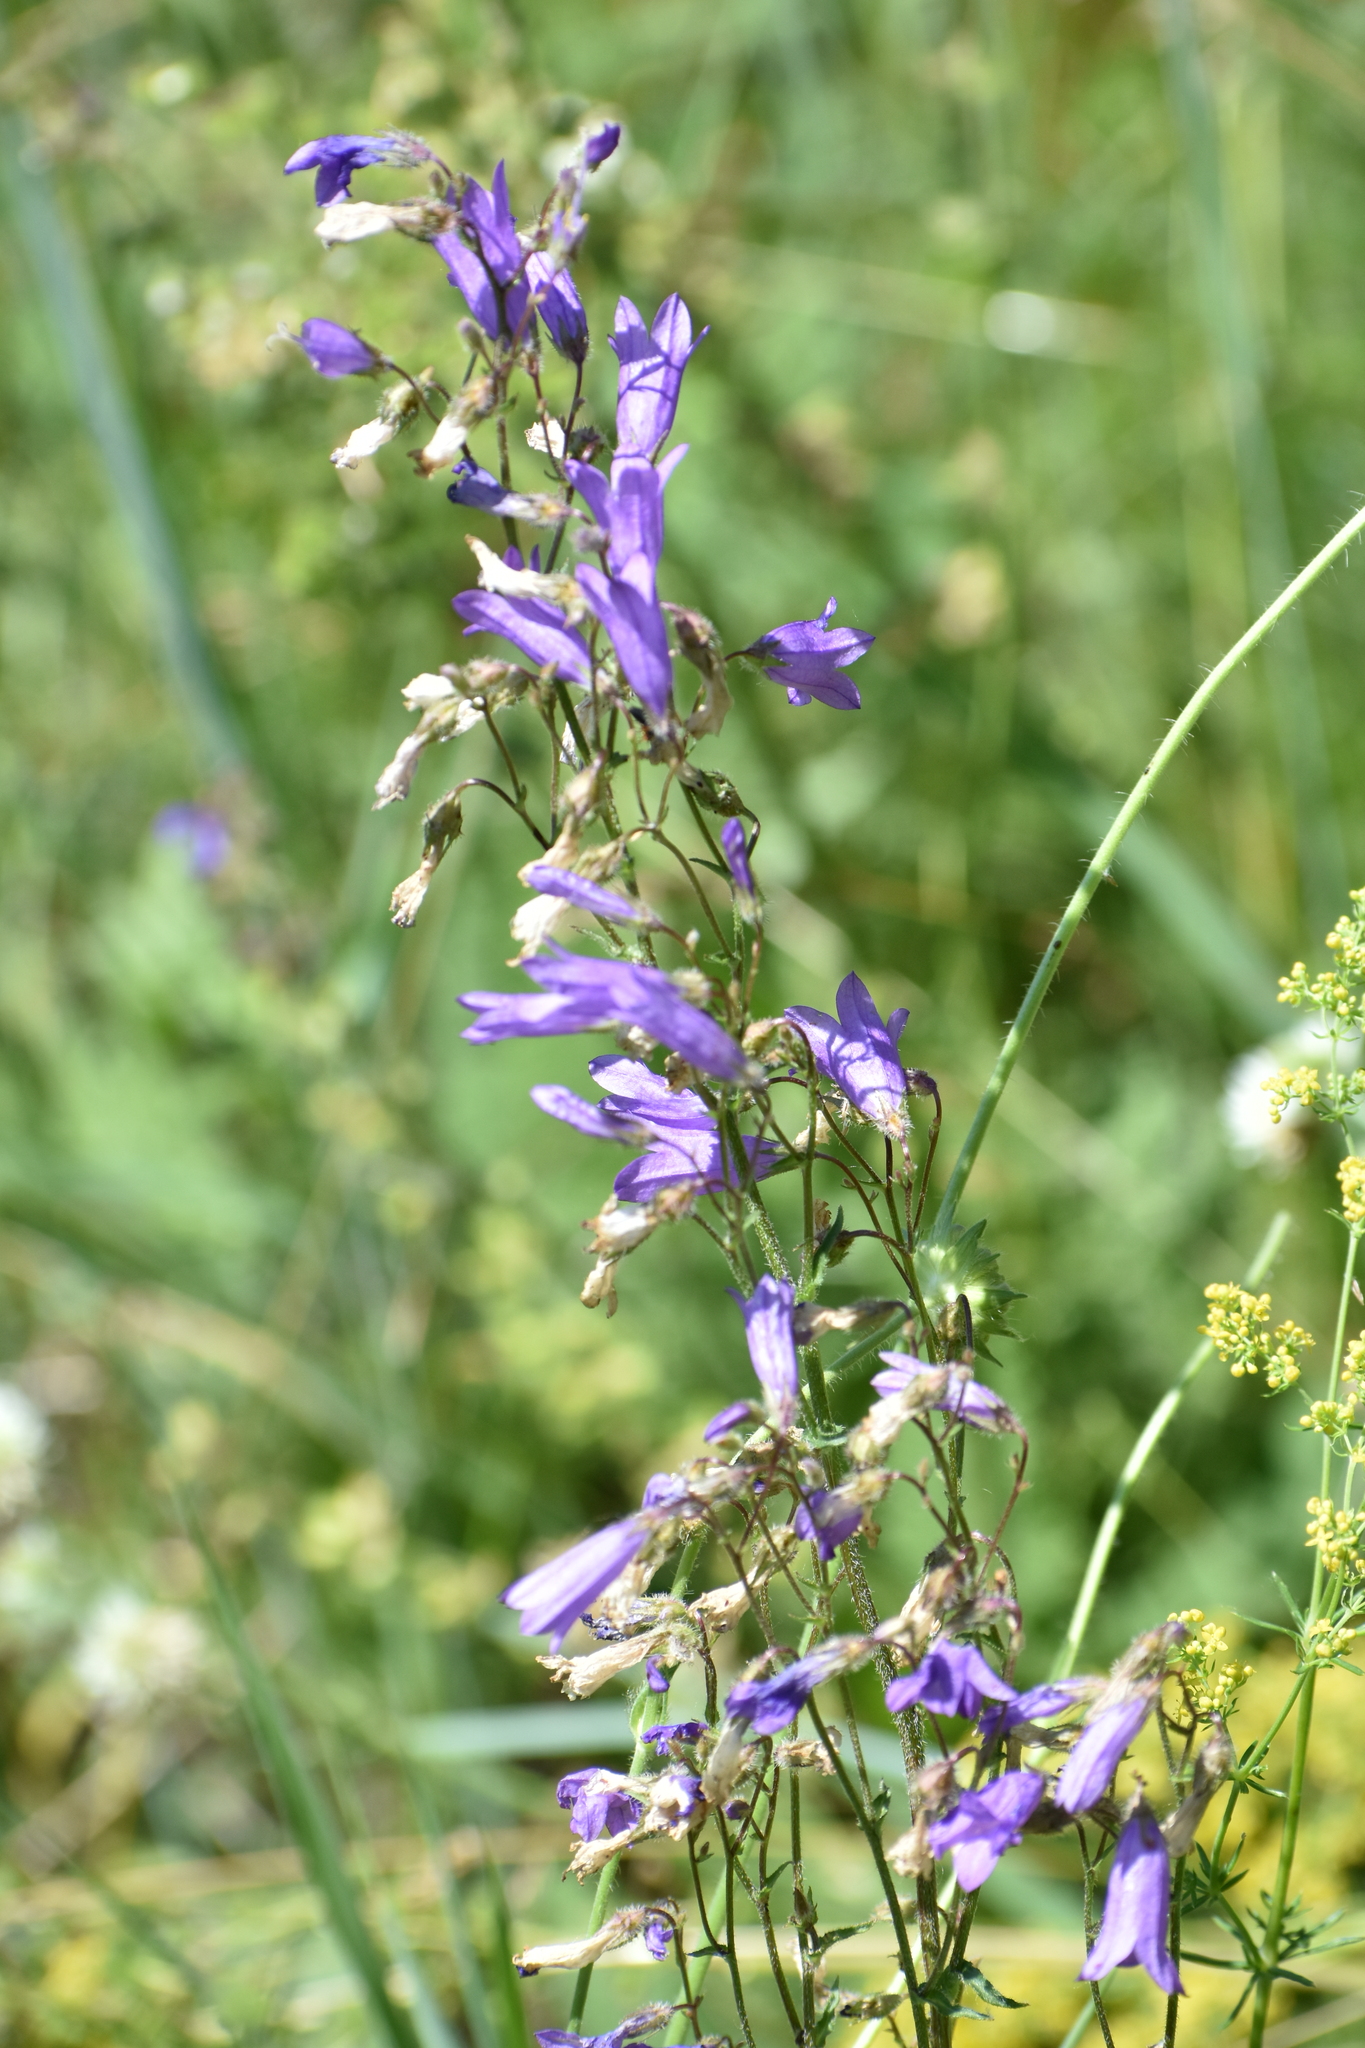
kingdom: Plantae
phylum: Tracheophyta
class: Magnoliopsida
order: Asterales
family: Campanulaceae
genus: Campanula
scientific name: Campanula sibirica
